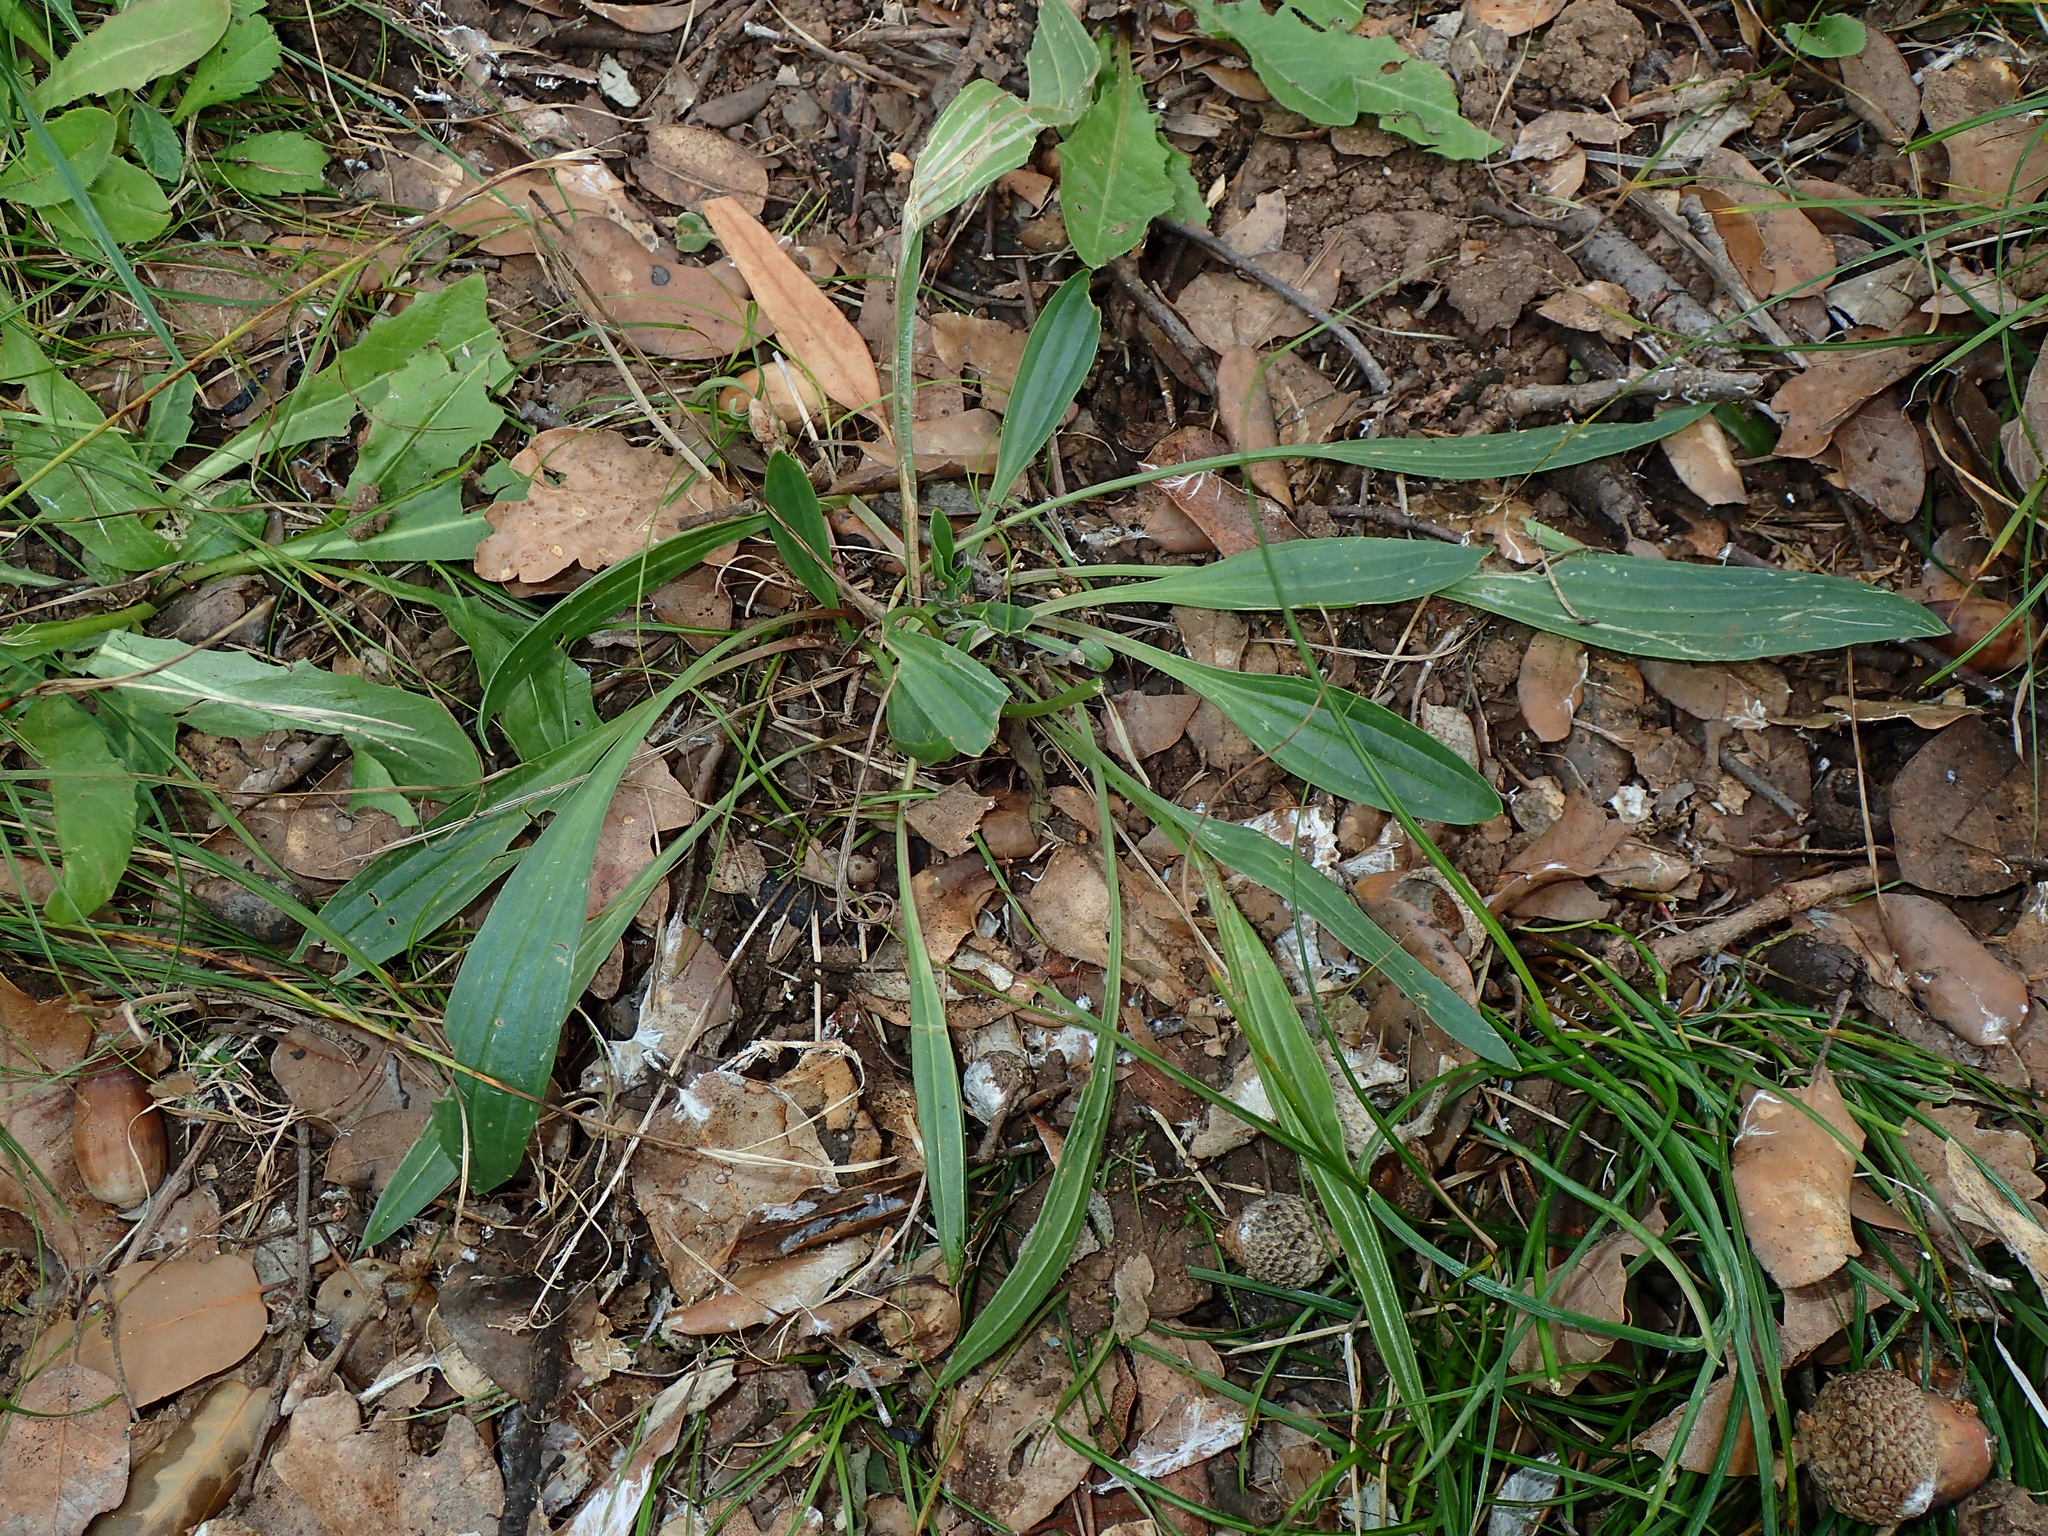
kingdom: Plantae
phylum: Tracheophyta
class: Magnoliopsida
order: Lamiales
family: Plantaginaceae
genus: Plantago
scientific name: Plantago lanceolata
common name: Ribwort plantain
